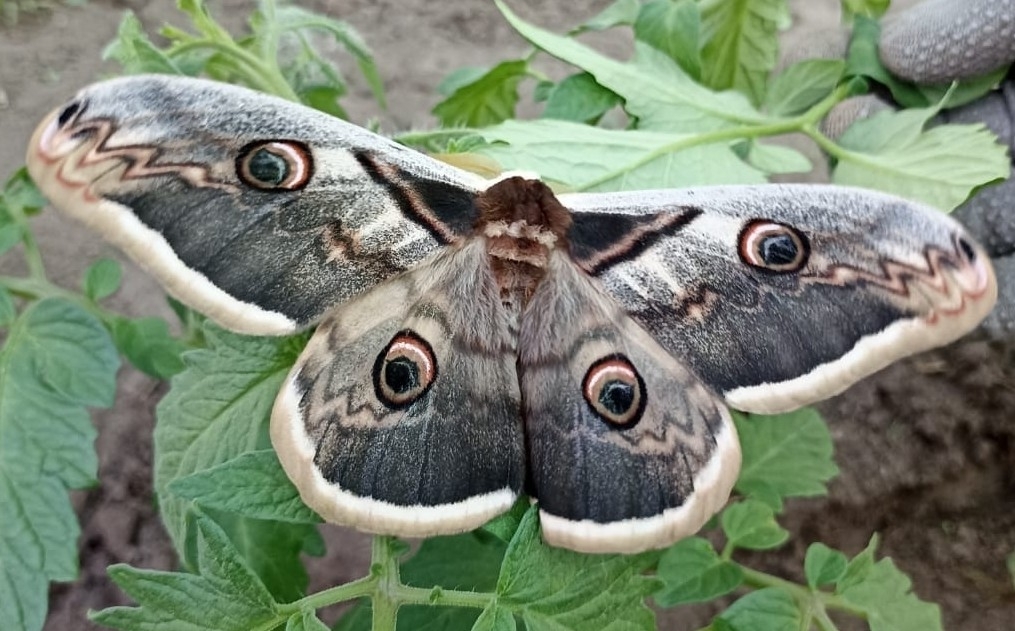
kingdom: Animalia
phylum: Arthropoda
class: Insecta
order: Lepidoptera
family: Saturniidae
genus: Saturnia
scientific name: Saturnia pyri
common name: Great peacock moth
